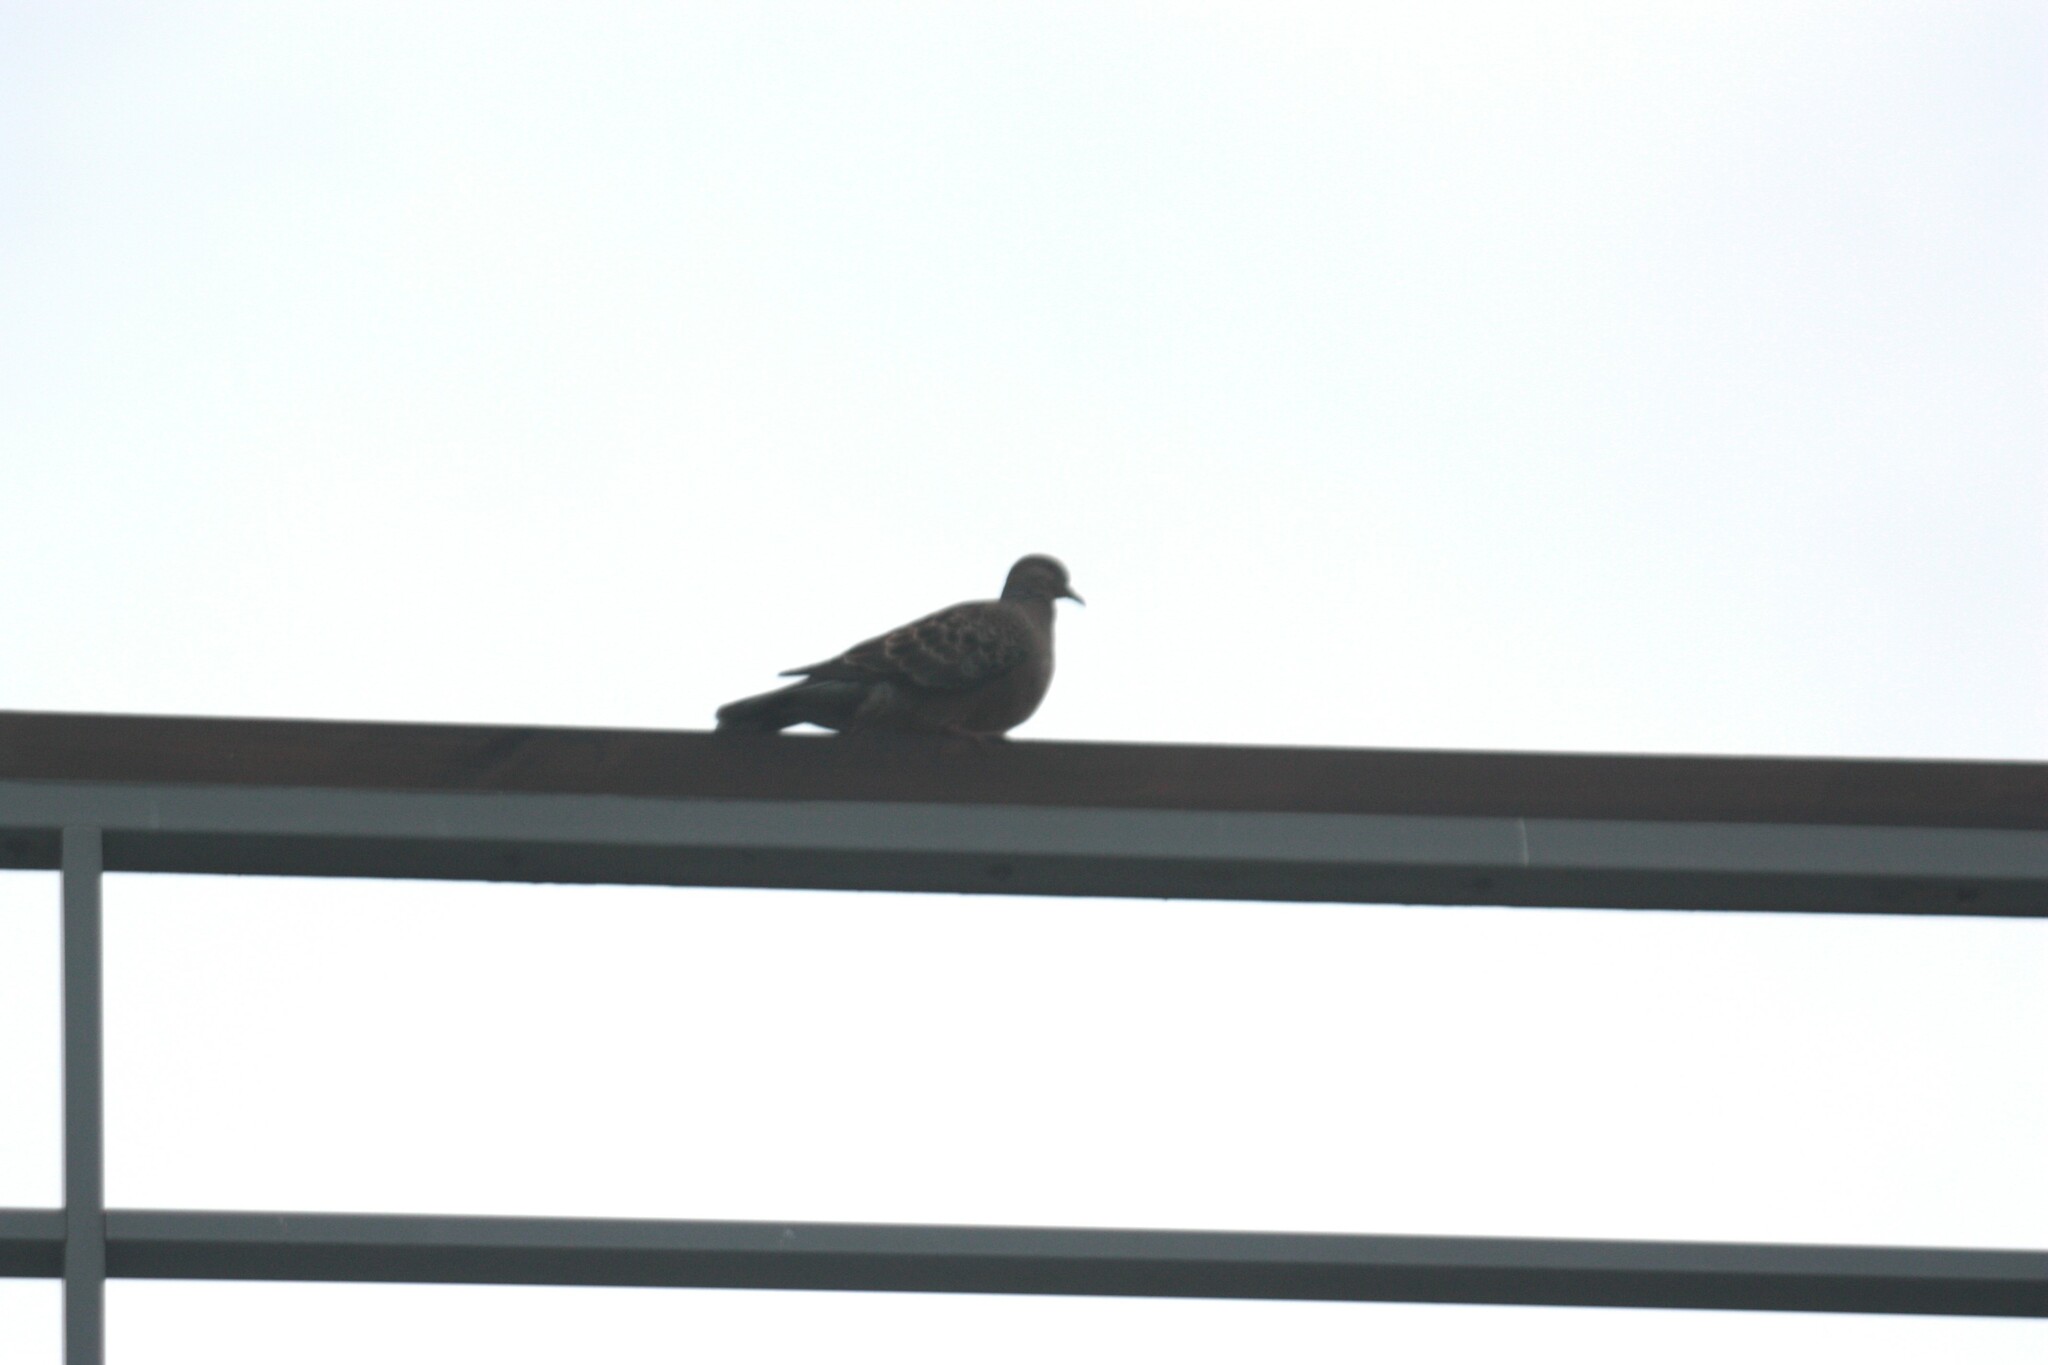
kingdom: Animalia
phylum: Chordata
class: Aves
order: Columbiformes
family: Columbidae
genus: Streptopelia
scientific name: Streptopelia orientalis
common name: Oriental turtle dove
